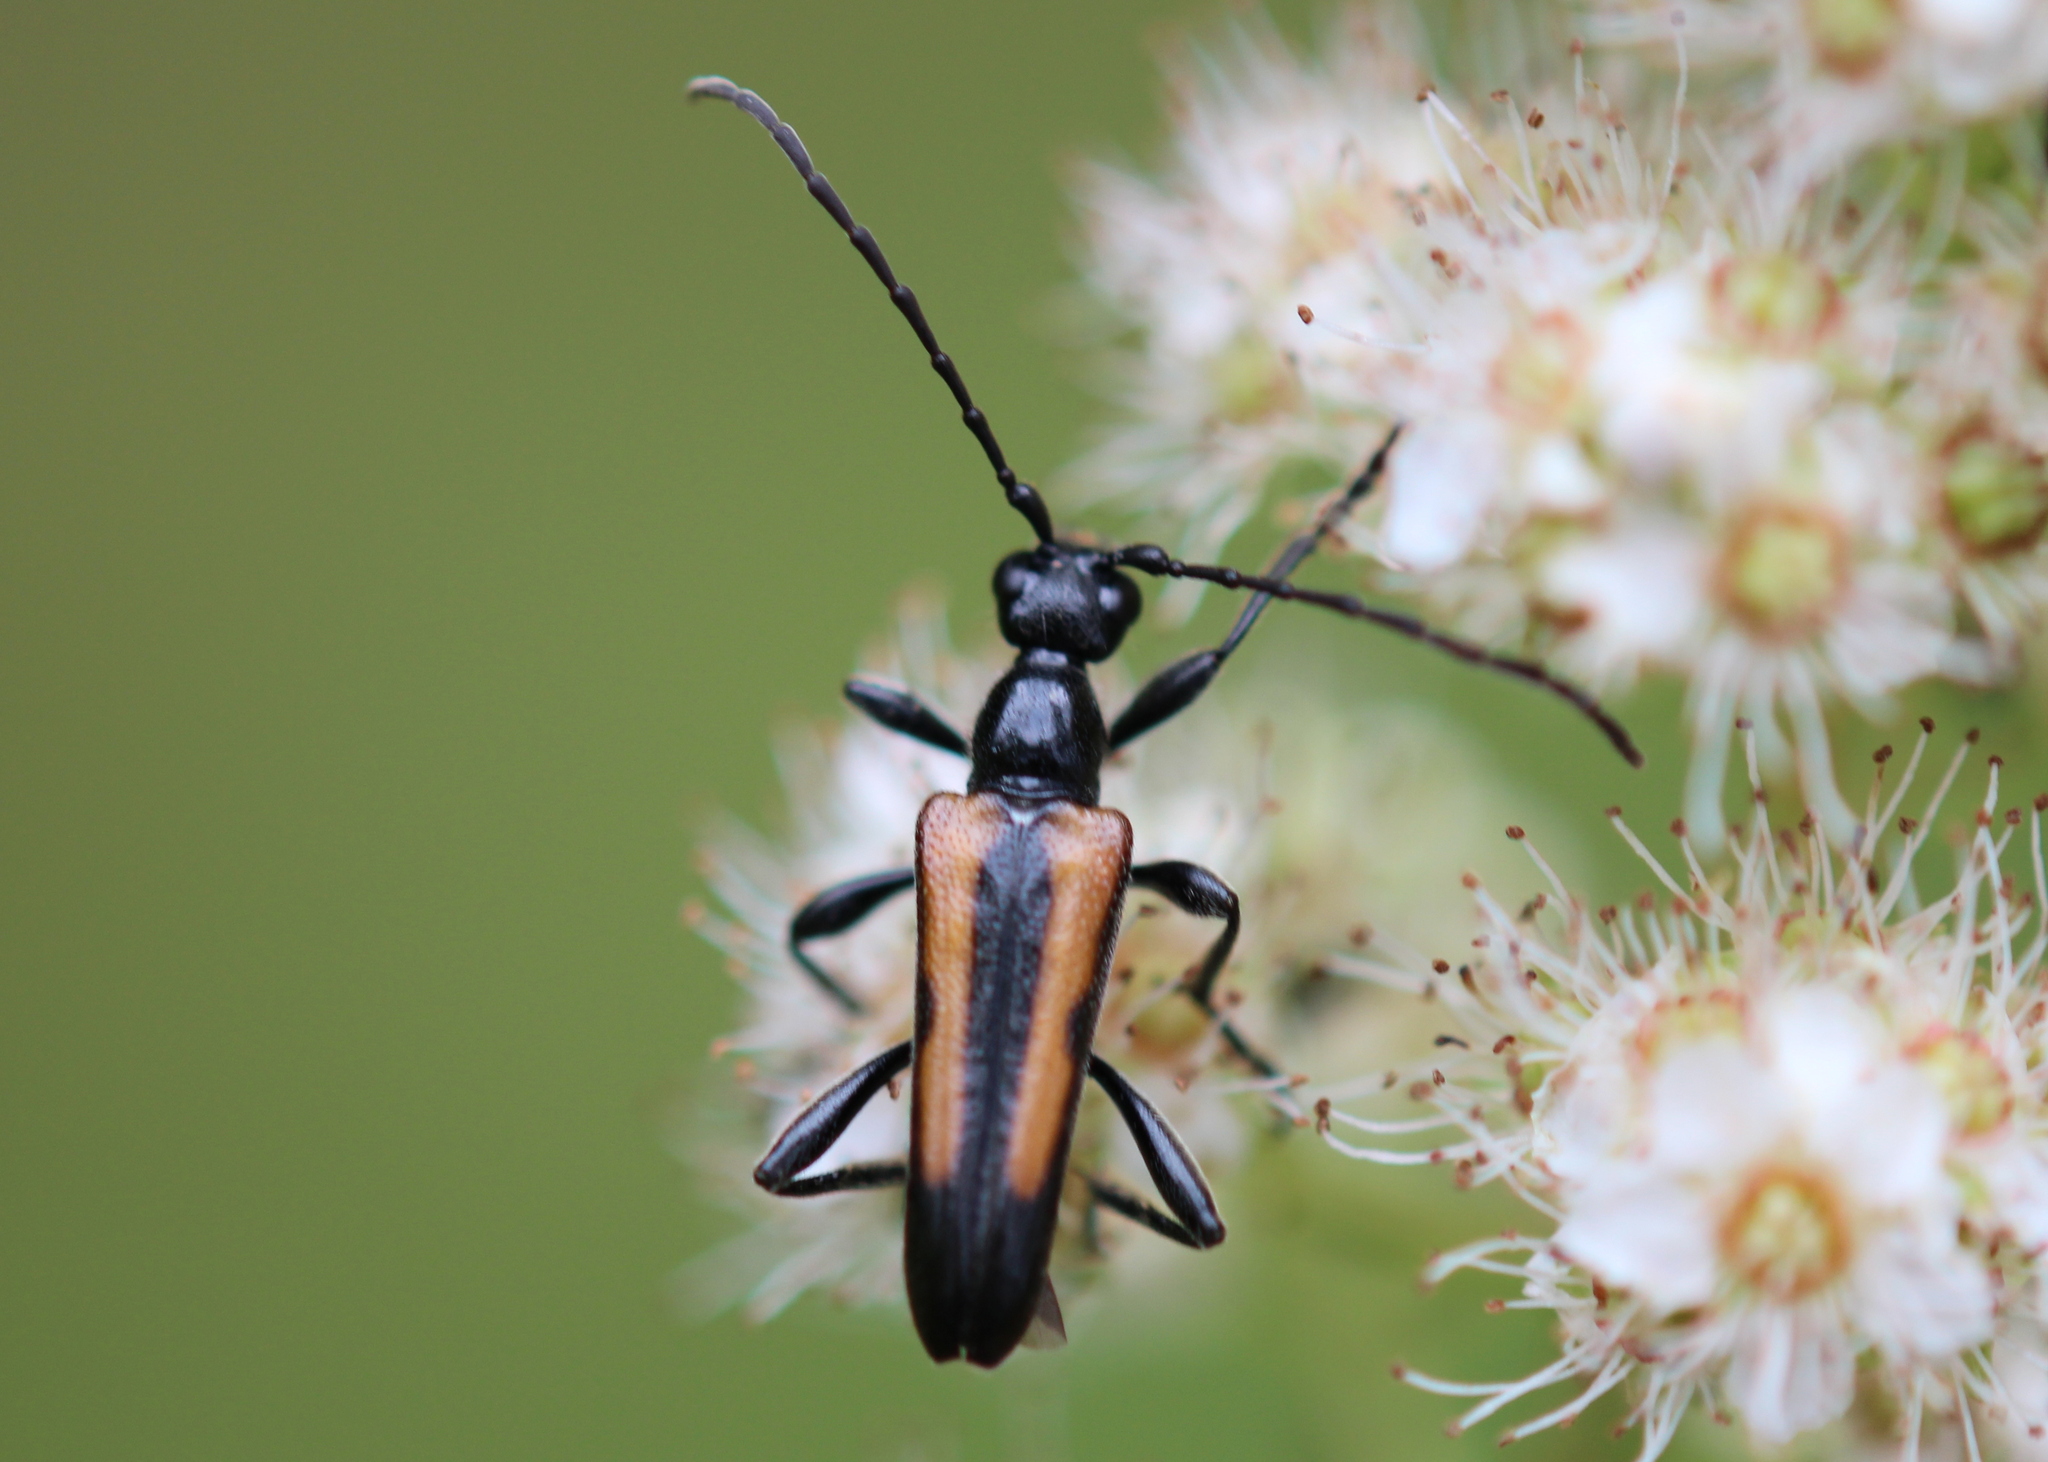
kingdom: Animalia
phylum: Arthropoda
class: Insecta
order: Coleoptera
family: Cerambycidae
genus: Strangalepta
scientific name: Strangalepta abbreviata
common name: Strangalepta flower longhorn beetle
